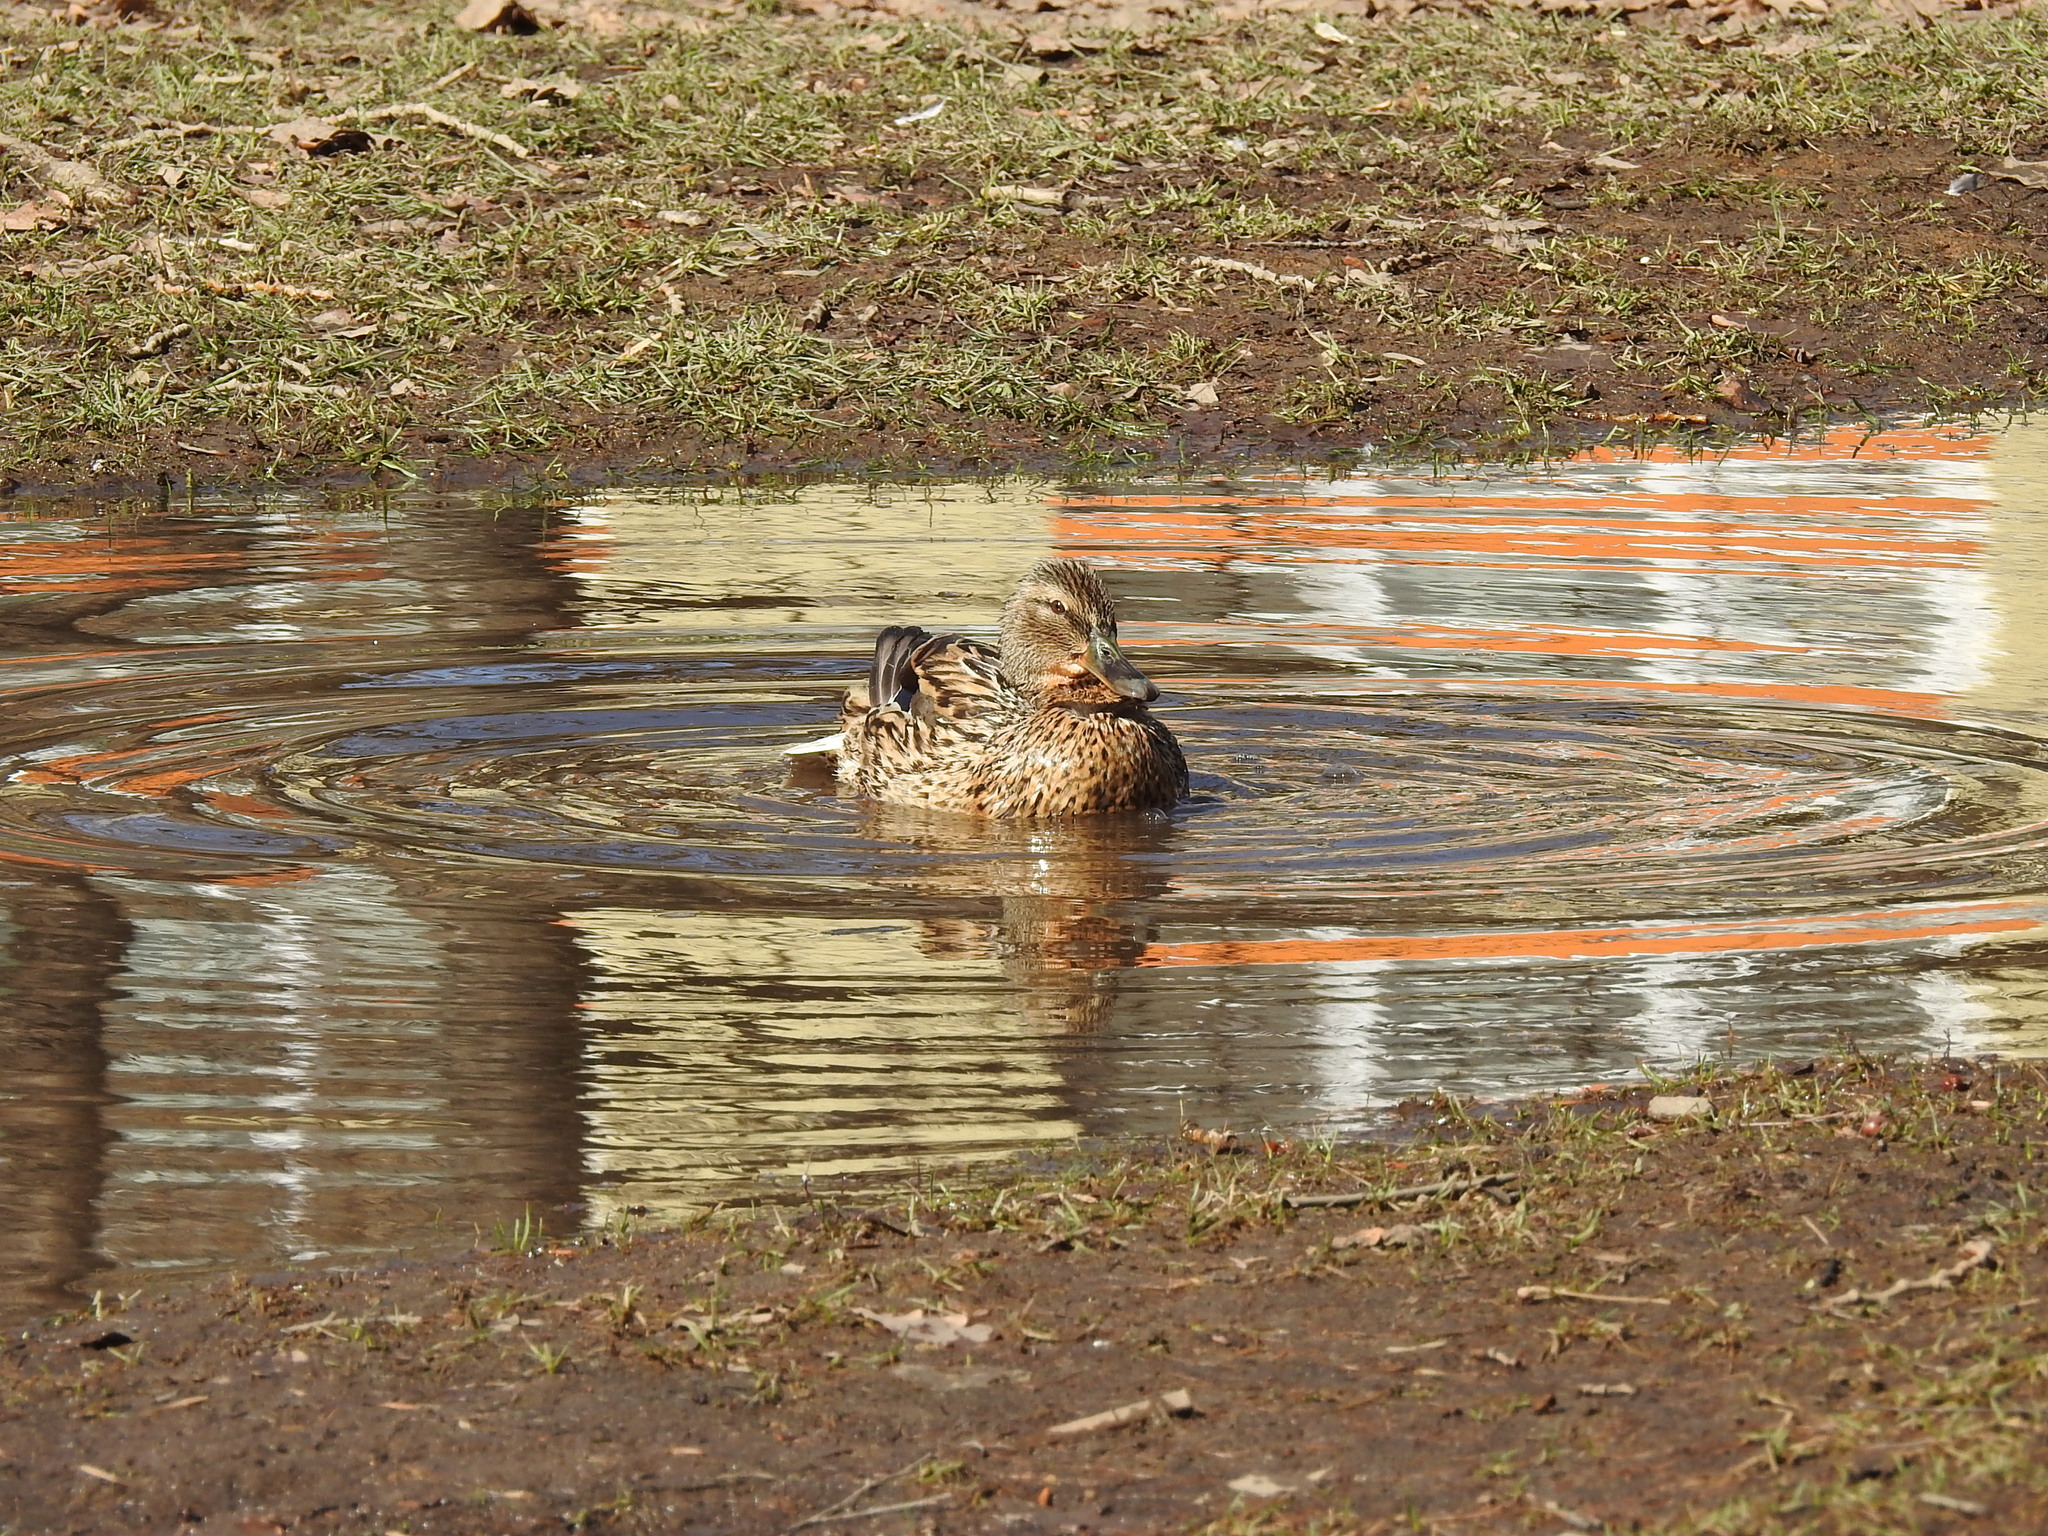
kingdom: Animalia
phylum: Chordata
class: Aves
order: Anseriformes
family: Anatidae
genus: Anas
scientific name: Anas platyrhynchos
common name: Mallard
